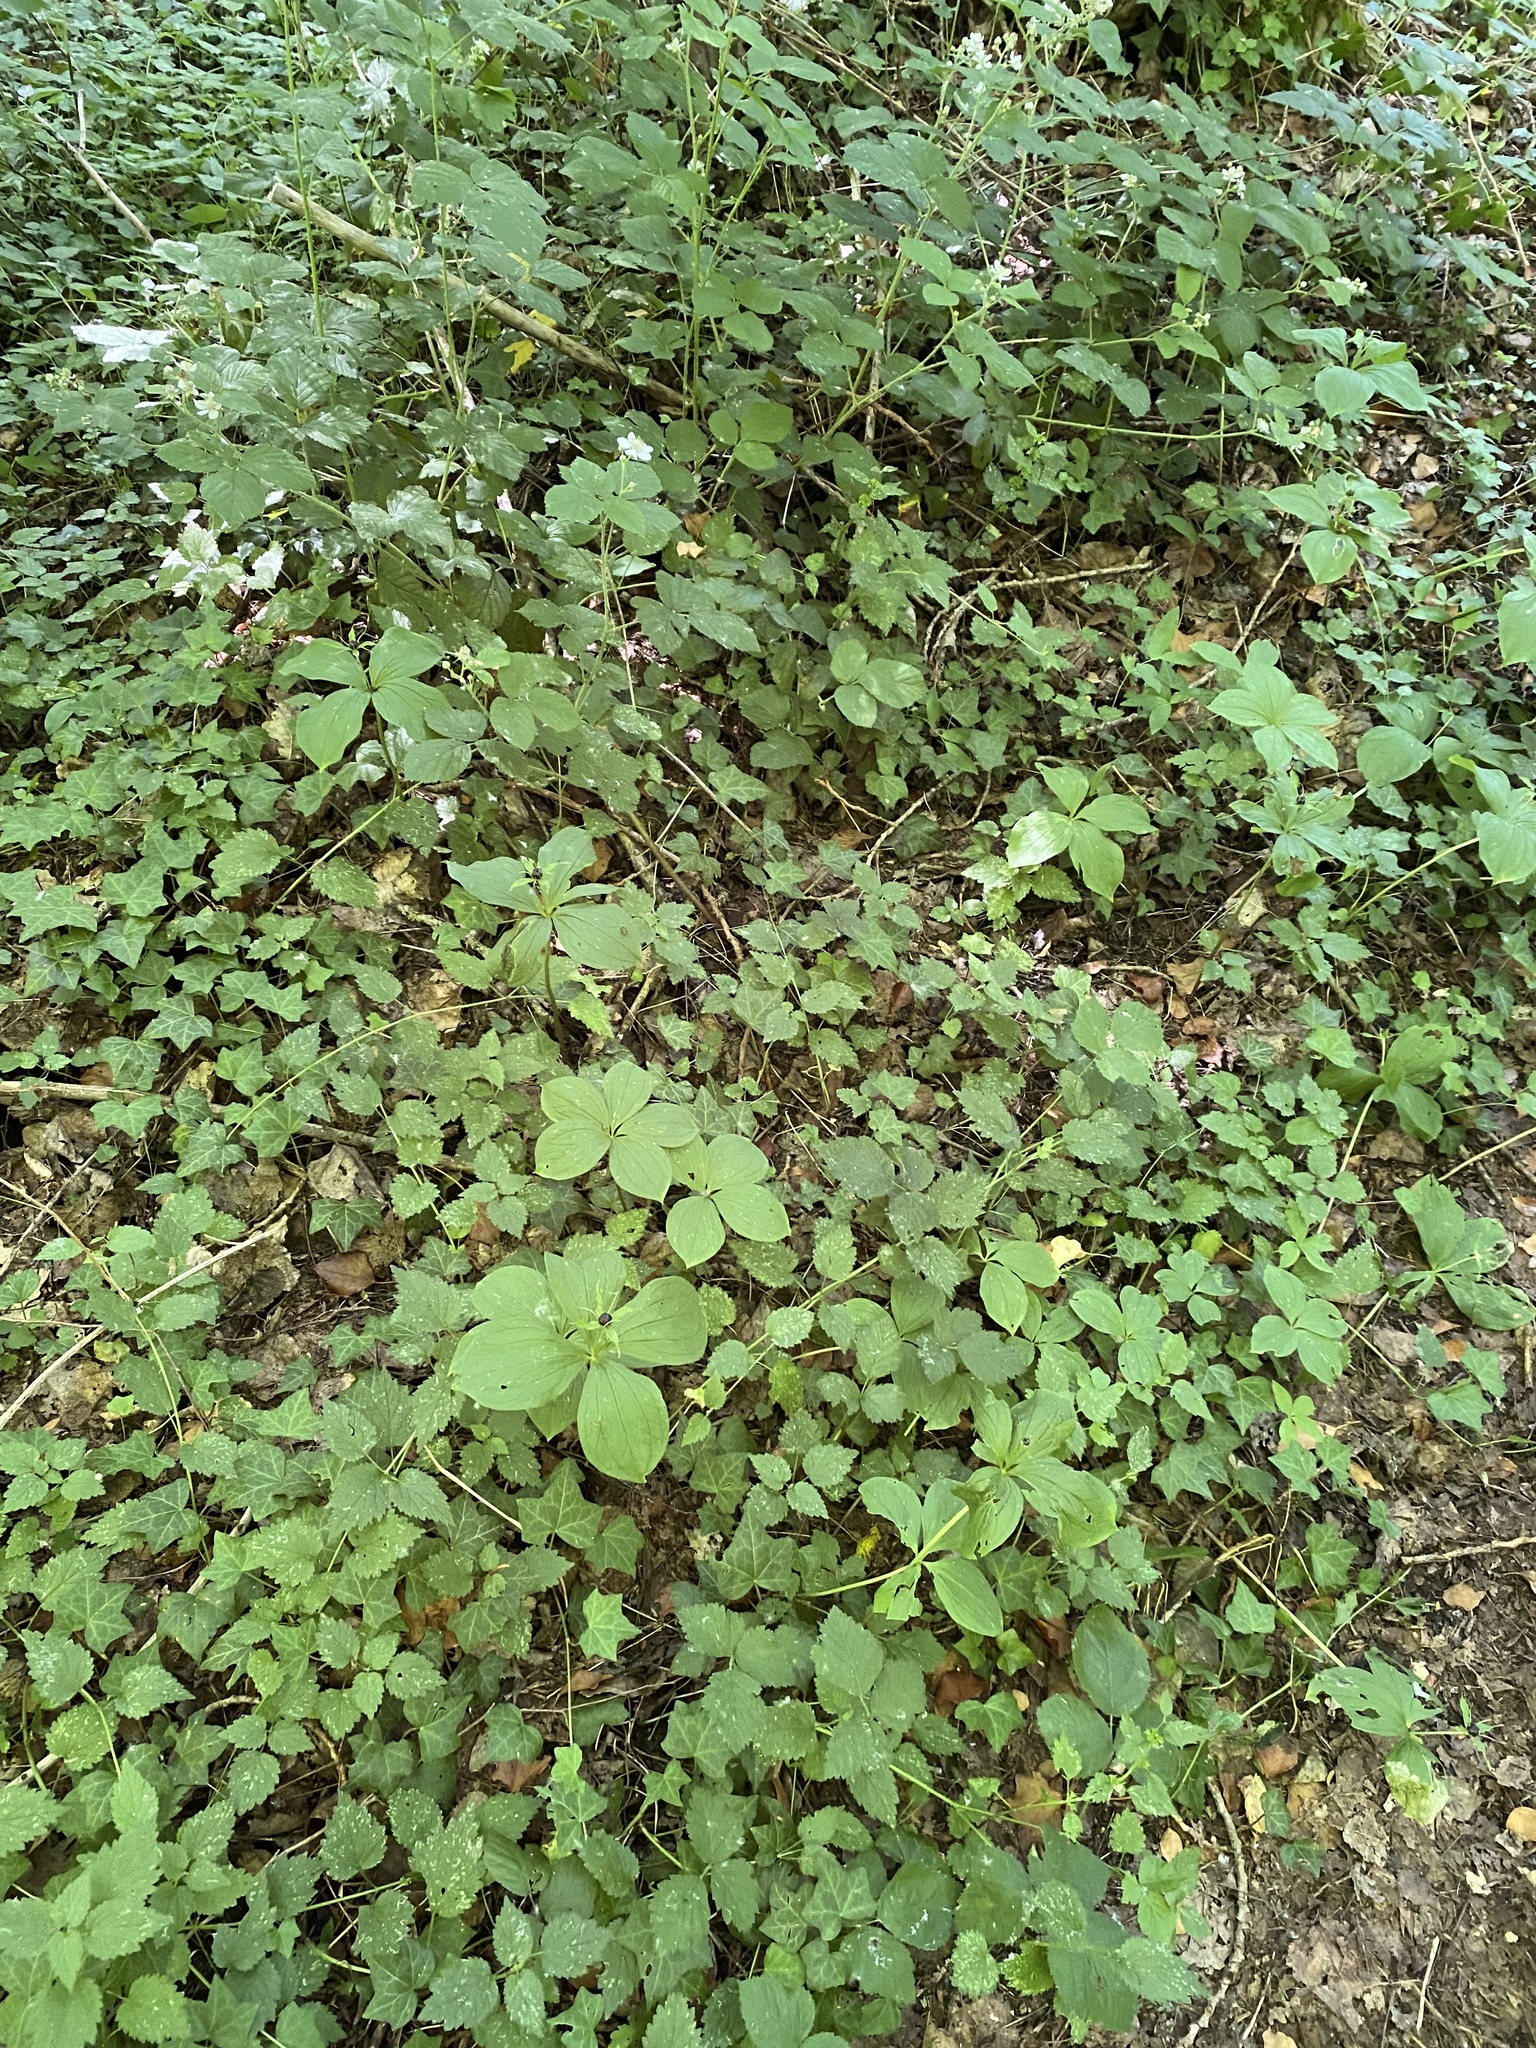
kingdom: Plantae
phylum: Tracheophyta
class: Liliopsida
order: Liliales
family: Melanthiaceae
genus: Paris
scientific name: Paris quadrifolia
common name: Herb-paris
